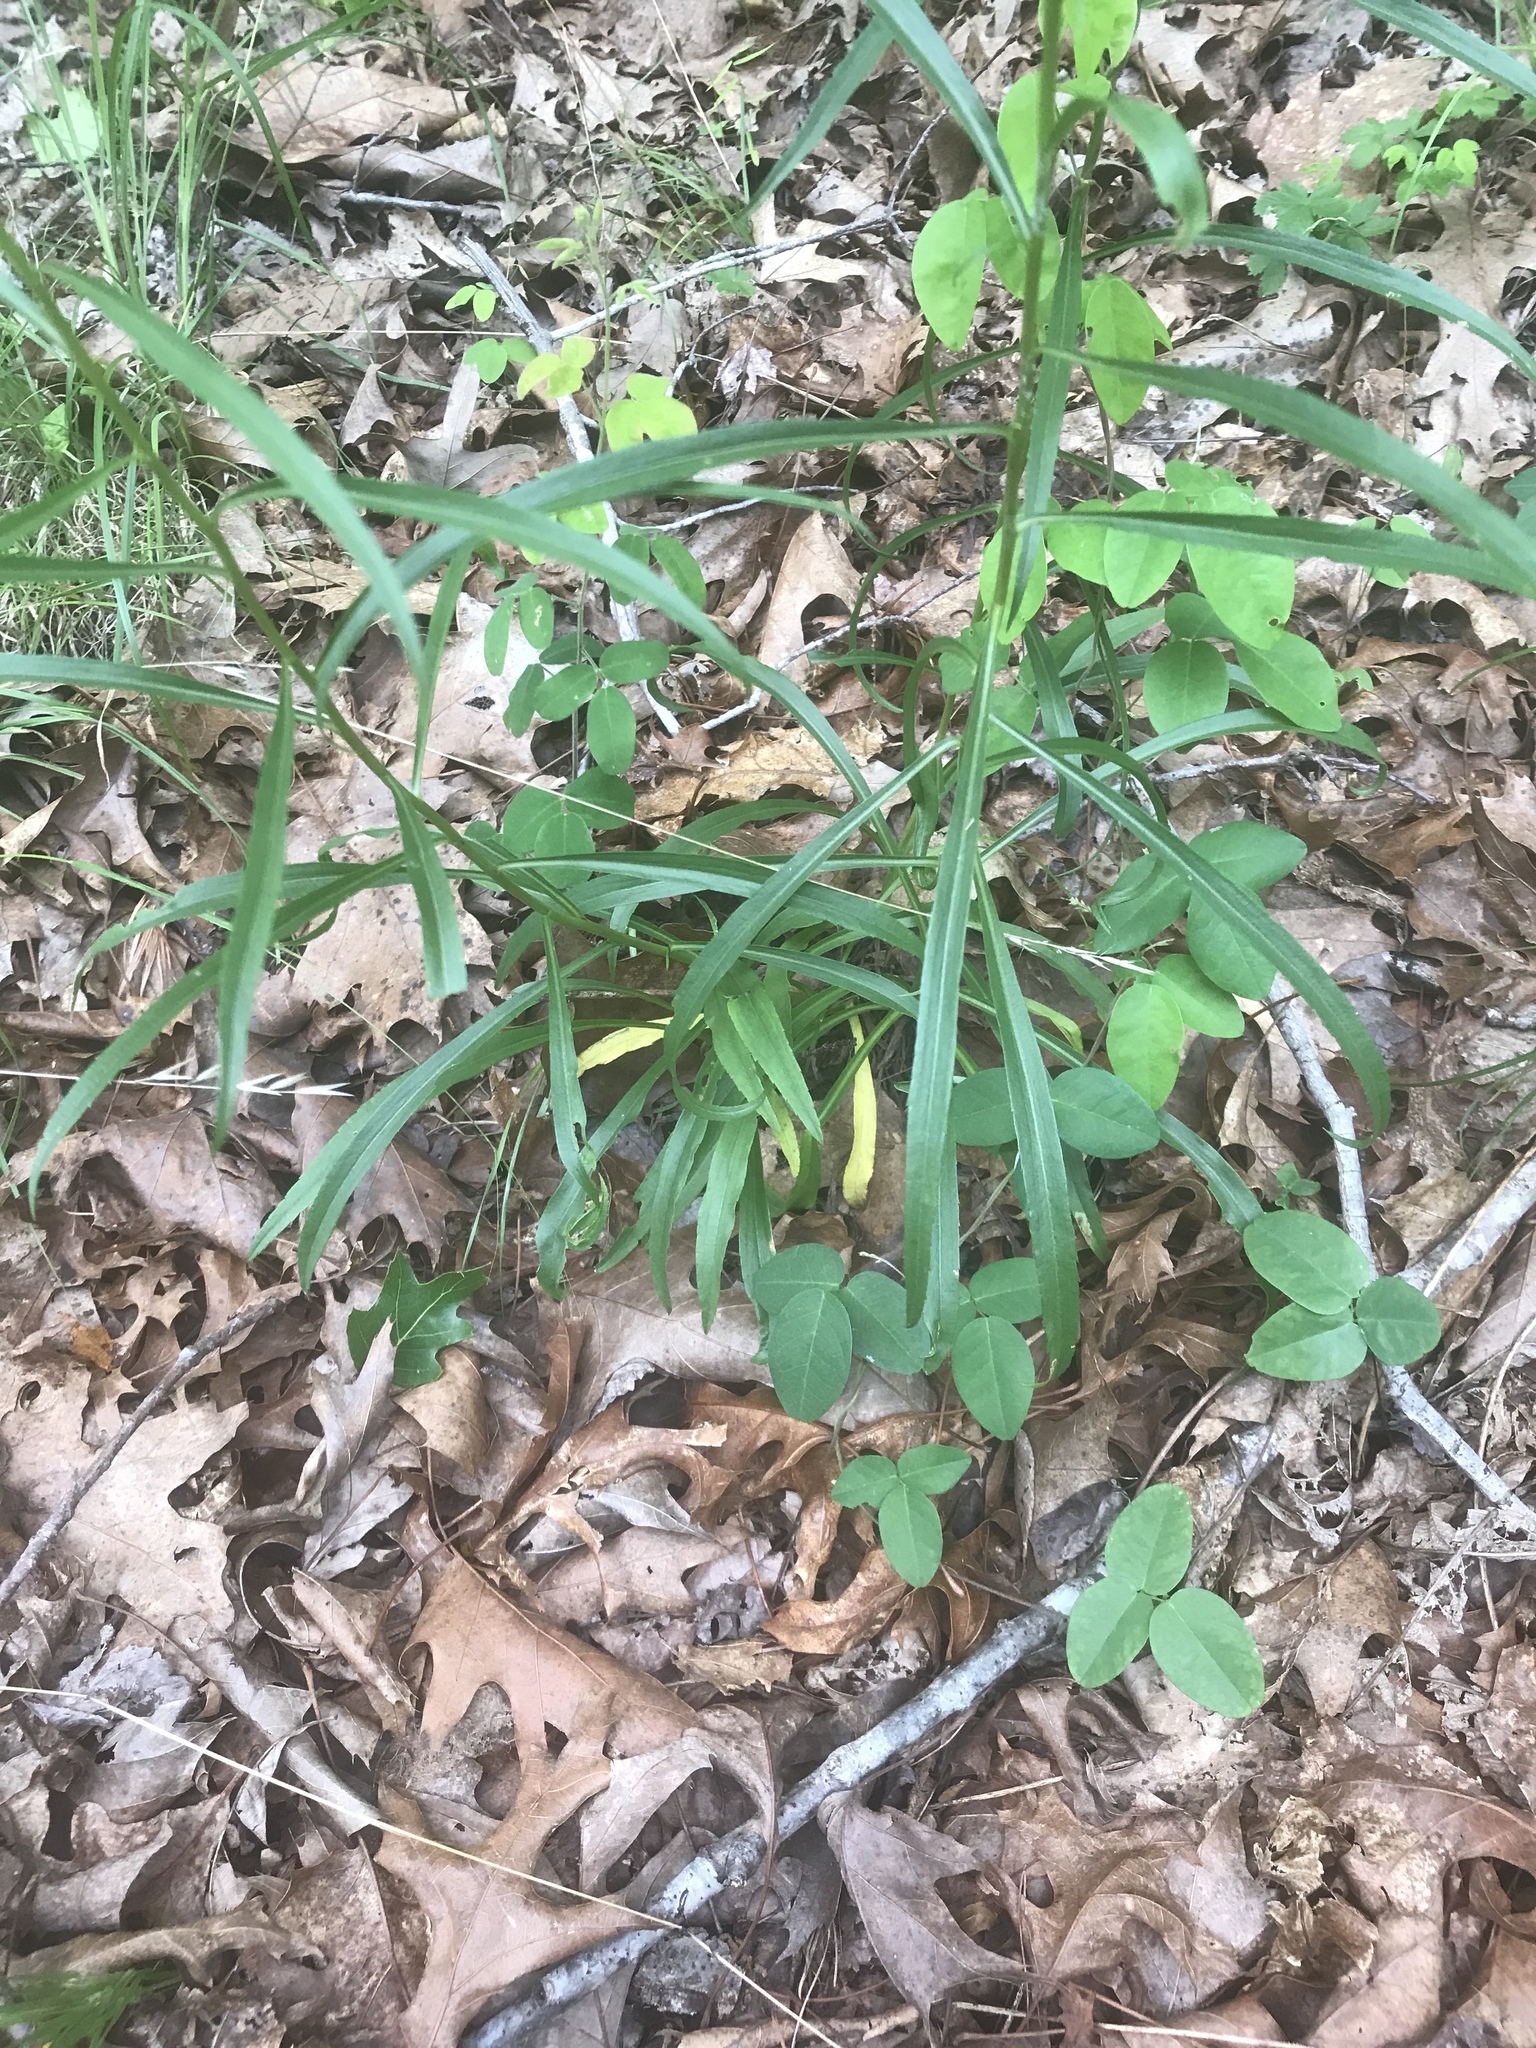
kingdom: Plantae
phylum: Tracheophyta
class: Magnoliopsida
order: Asterales
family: Asteraceae
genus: Solidago
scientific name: Solidago pinetorum
